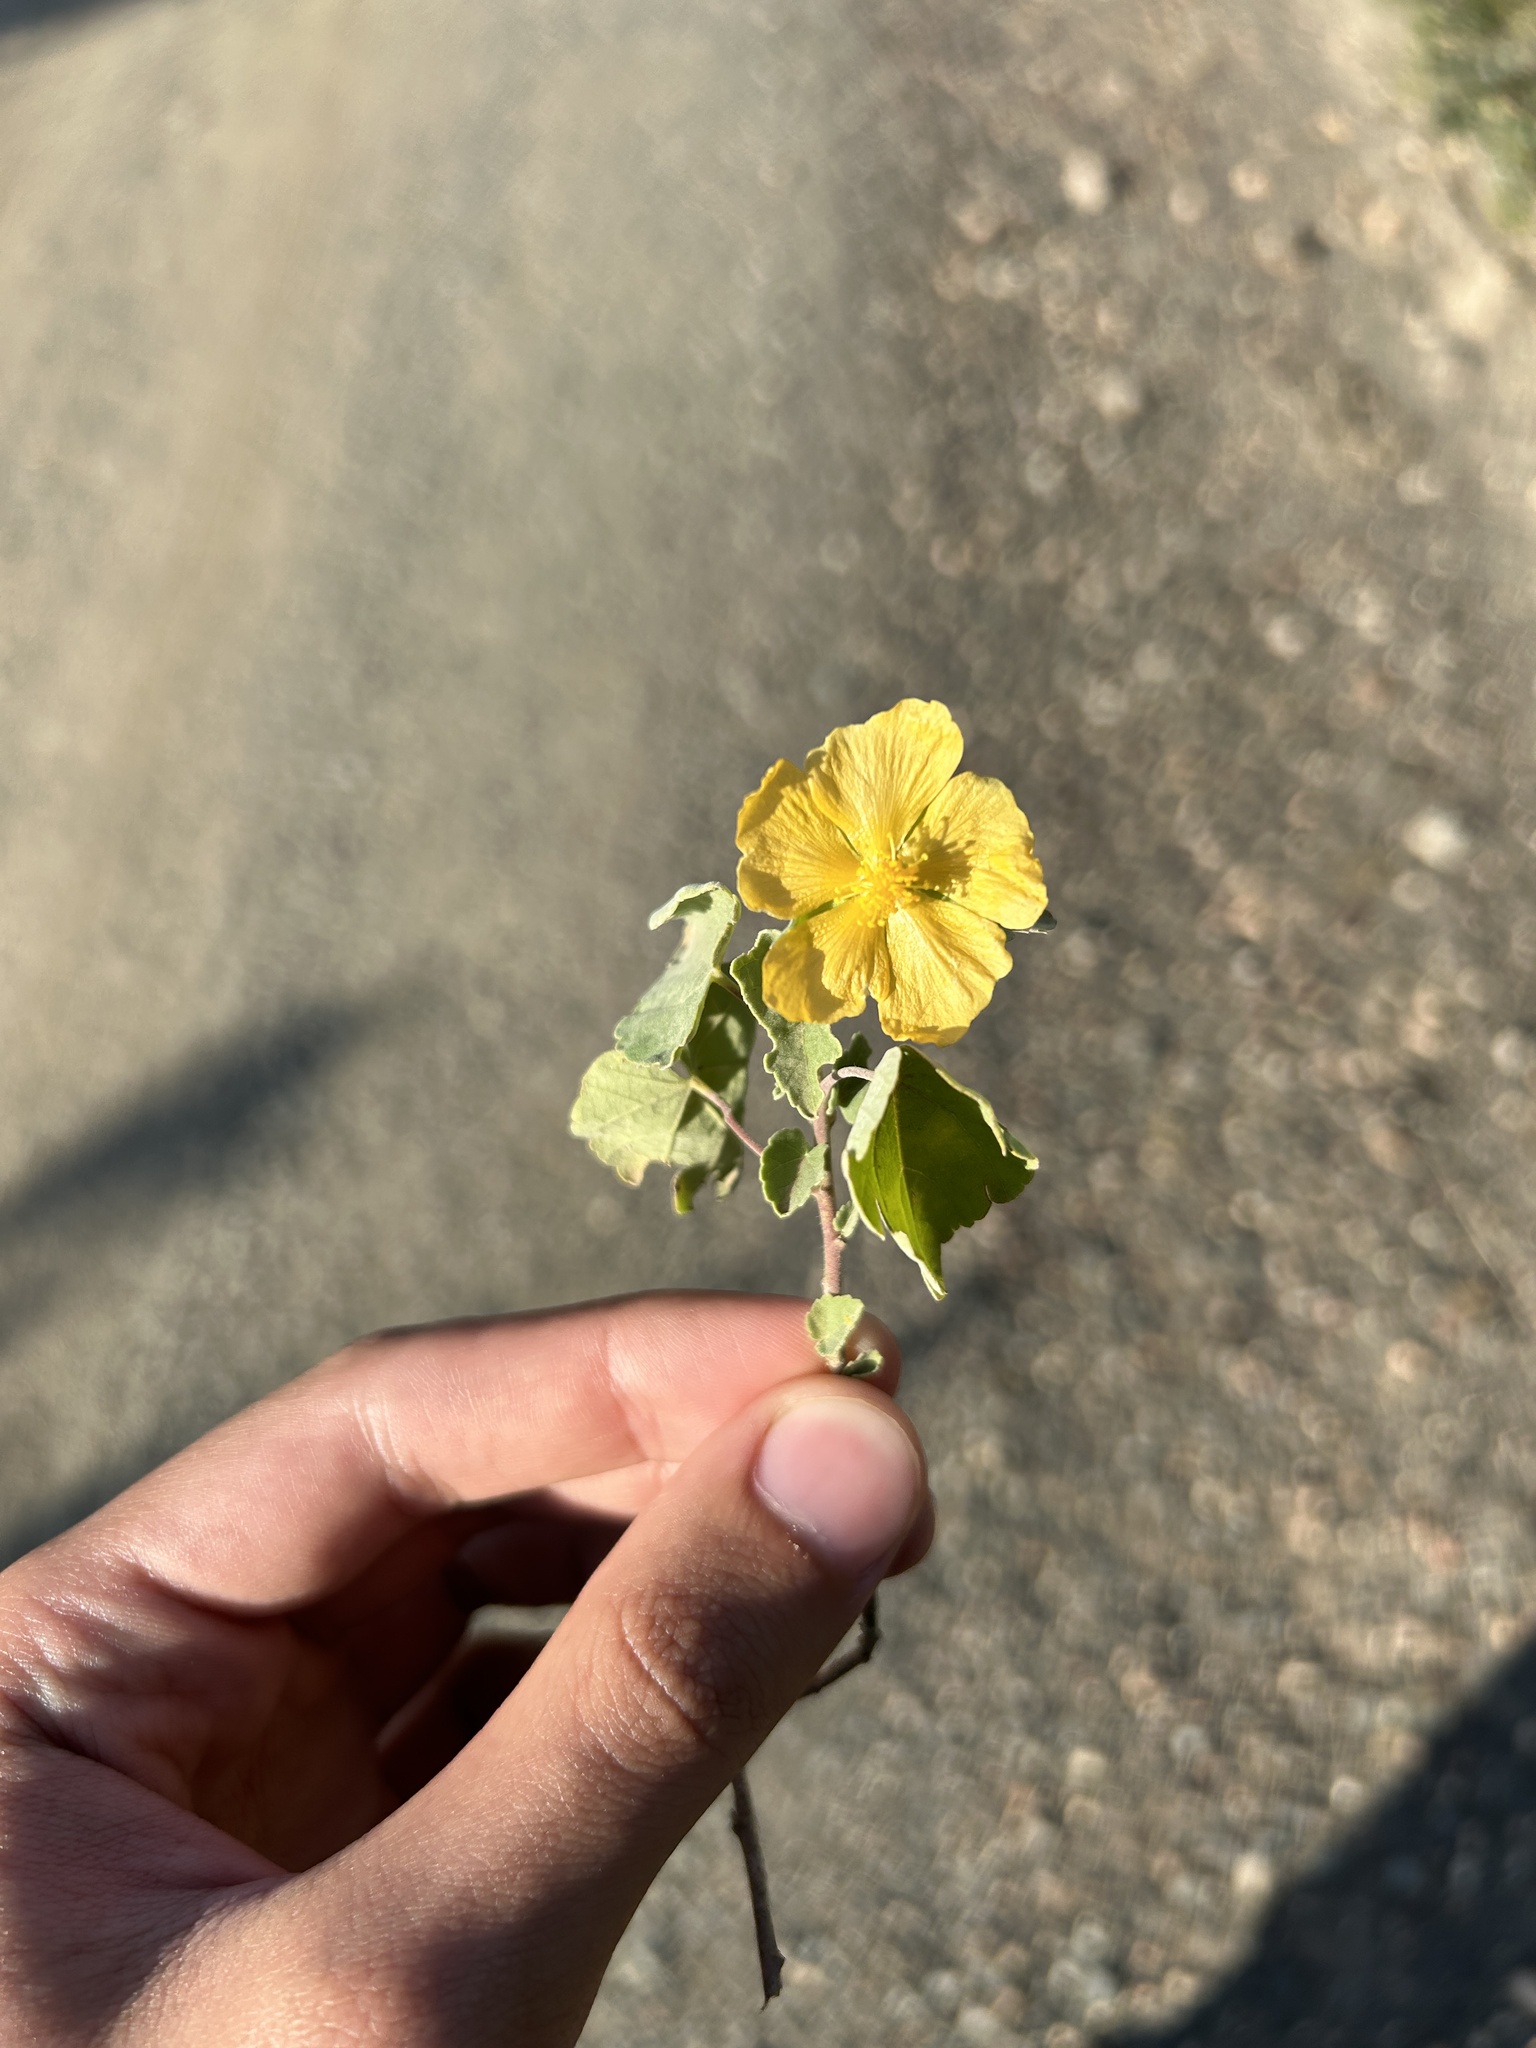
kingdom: Plantae
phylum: Tracheophyta
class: Magnoliopsida
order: Malvales
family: Malvaceae
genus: Abutilon
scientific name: Abutilon sonneratianum
